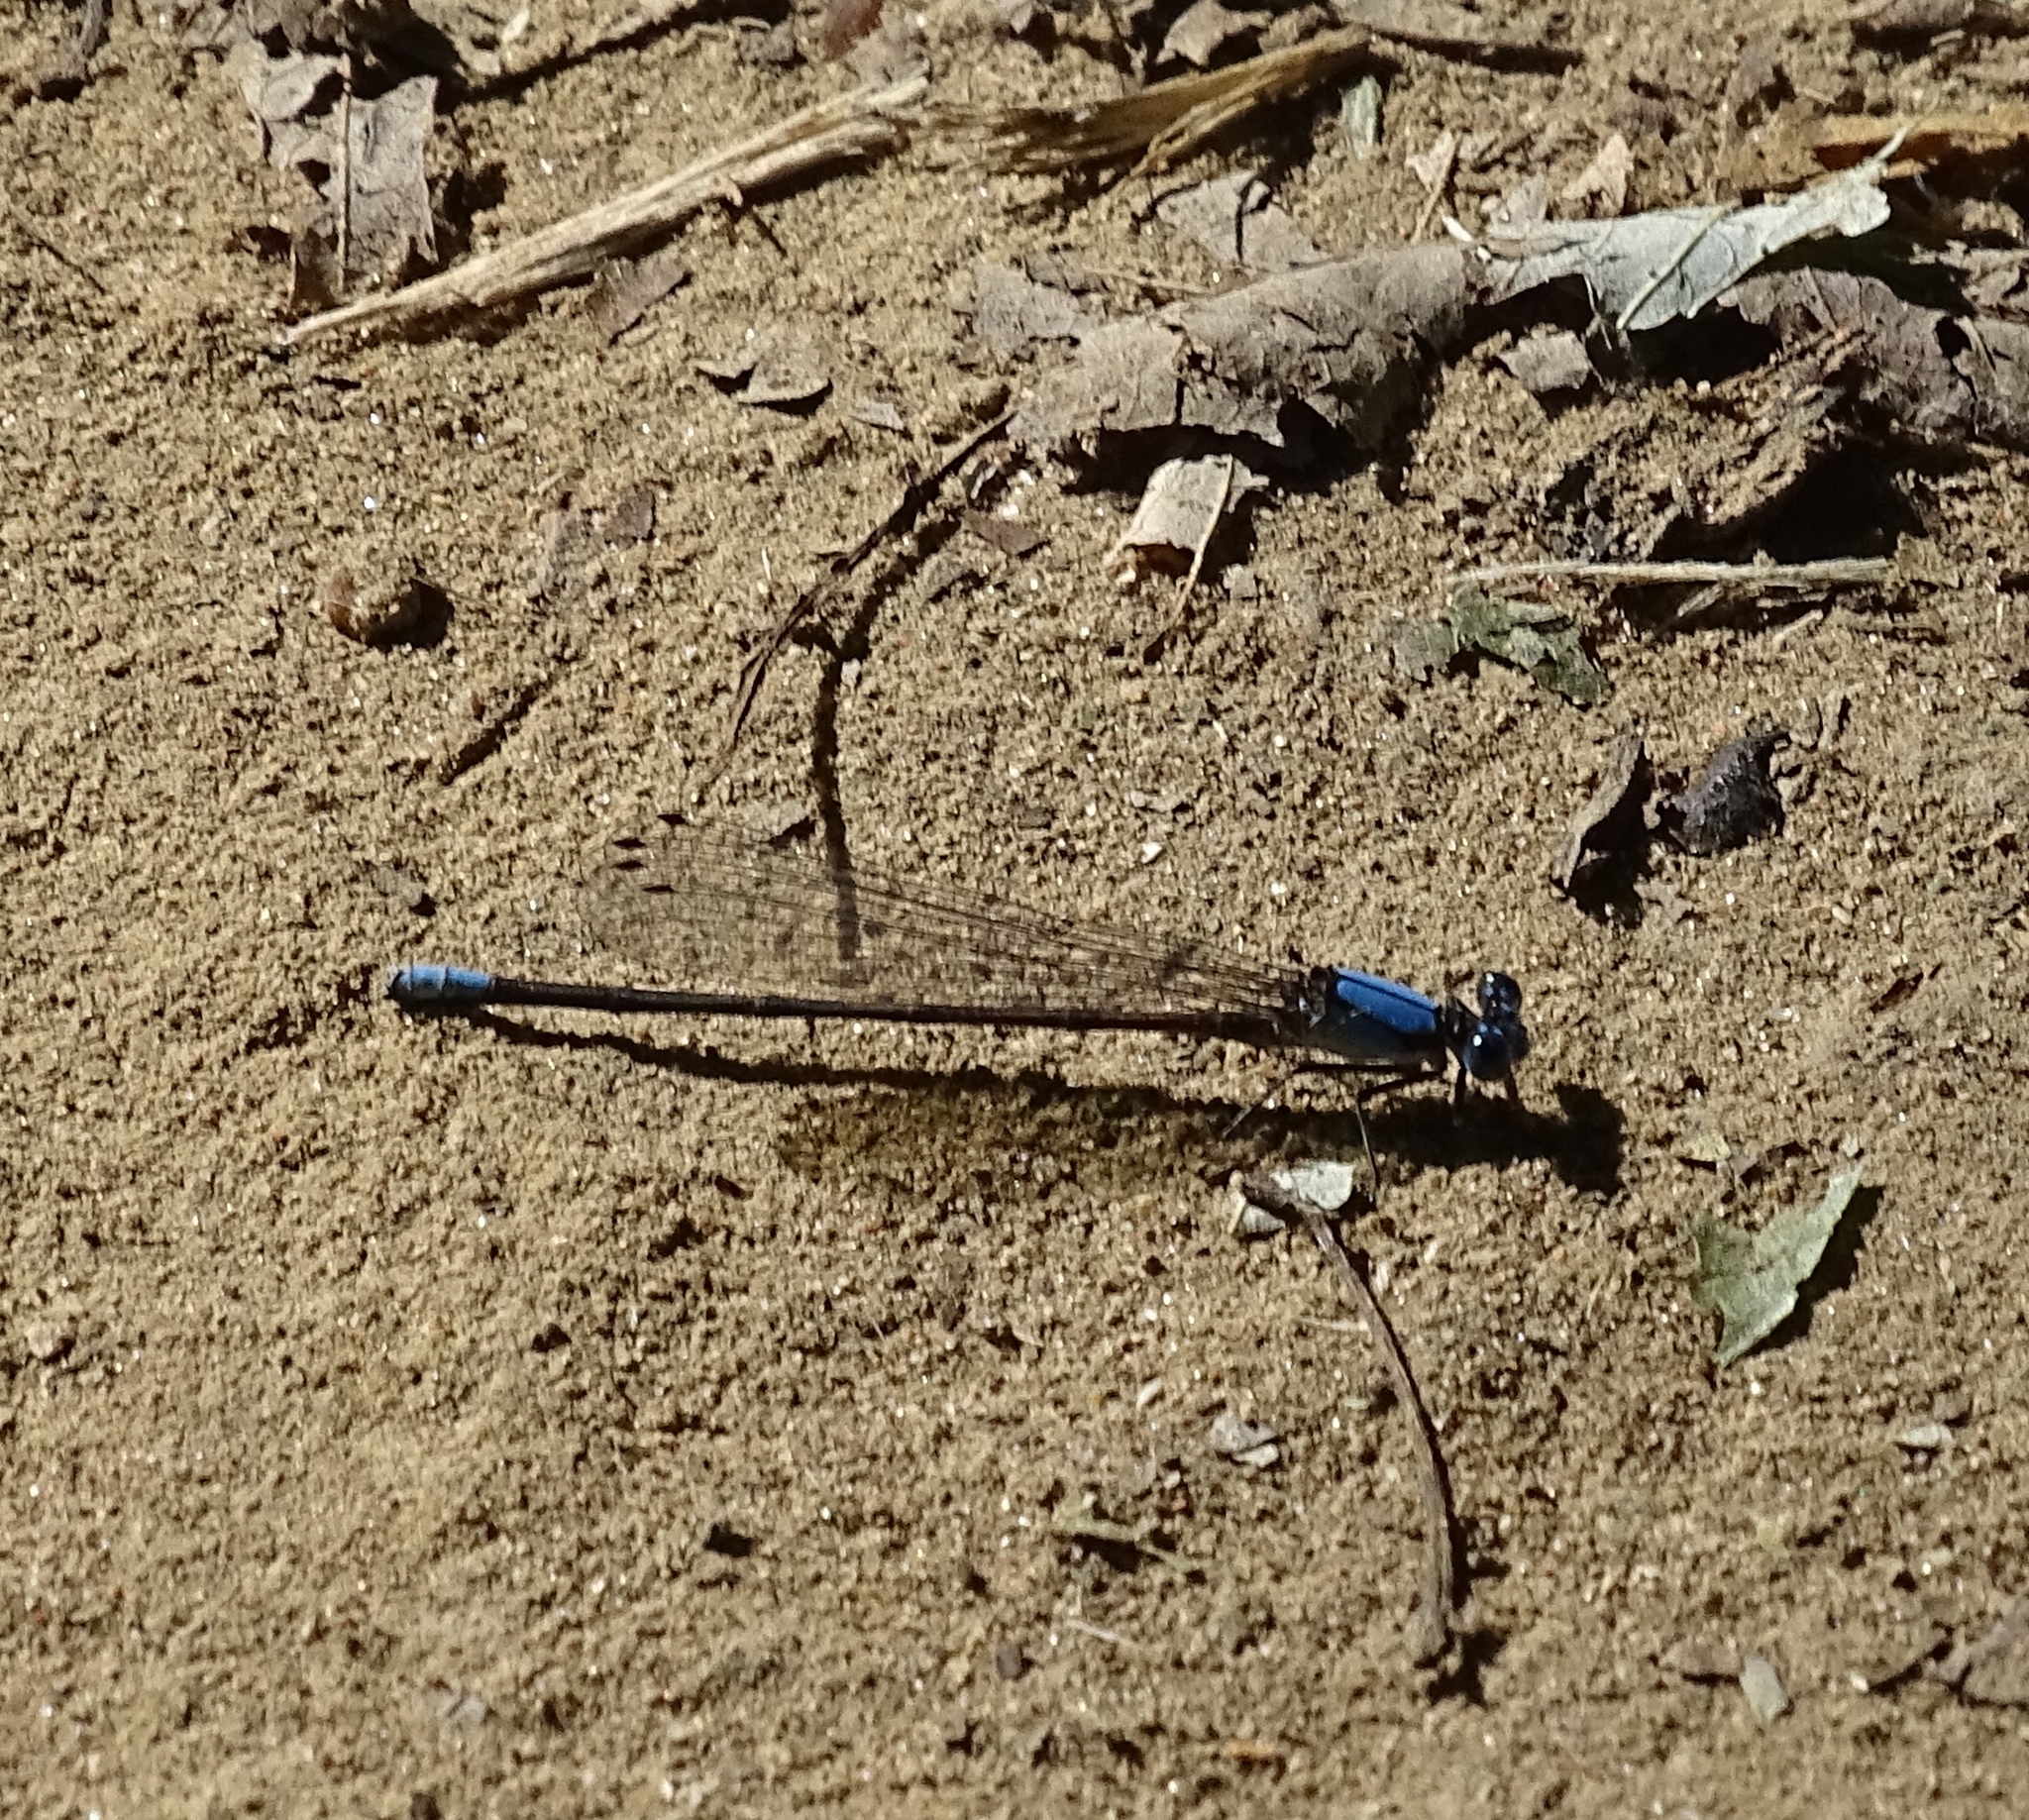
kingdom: Animalia
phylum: Arthropoda
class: Insecta
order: Odonata
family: Coenagrionidae
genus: Argia
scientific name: Argia apicalis
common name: Blue-fronted dancer
